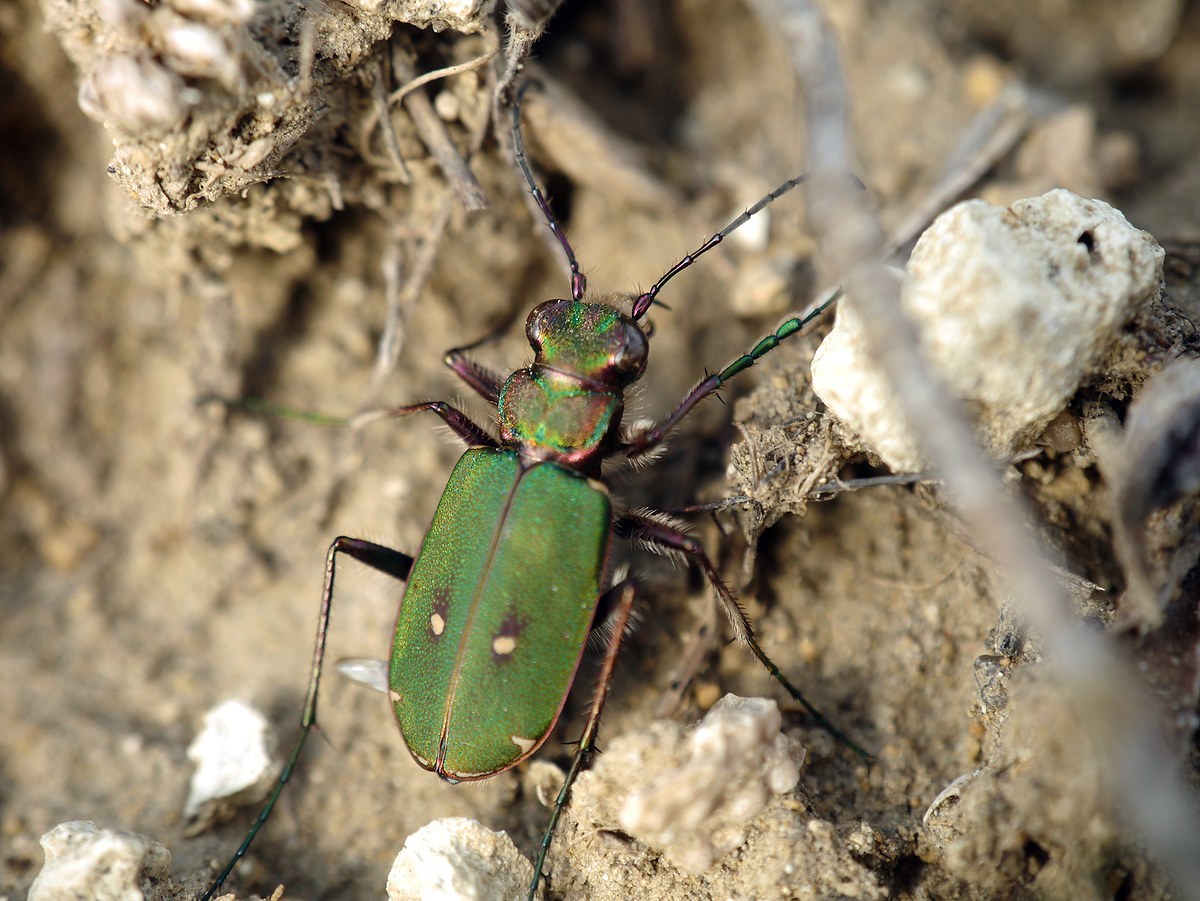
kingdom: Animalia
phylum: Arthropoda
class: Insecta
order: Coleoptera
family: Carabidae
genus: Cicindela
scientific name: Cicindela campestris
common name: Common tiger beetle
